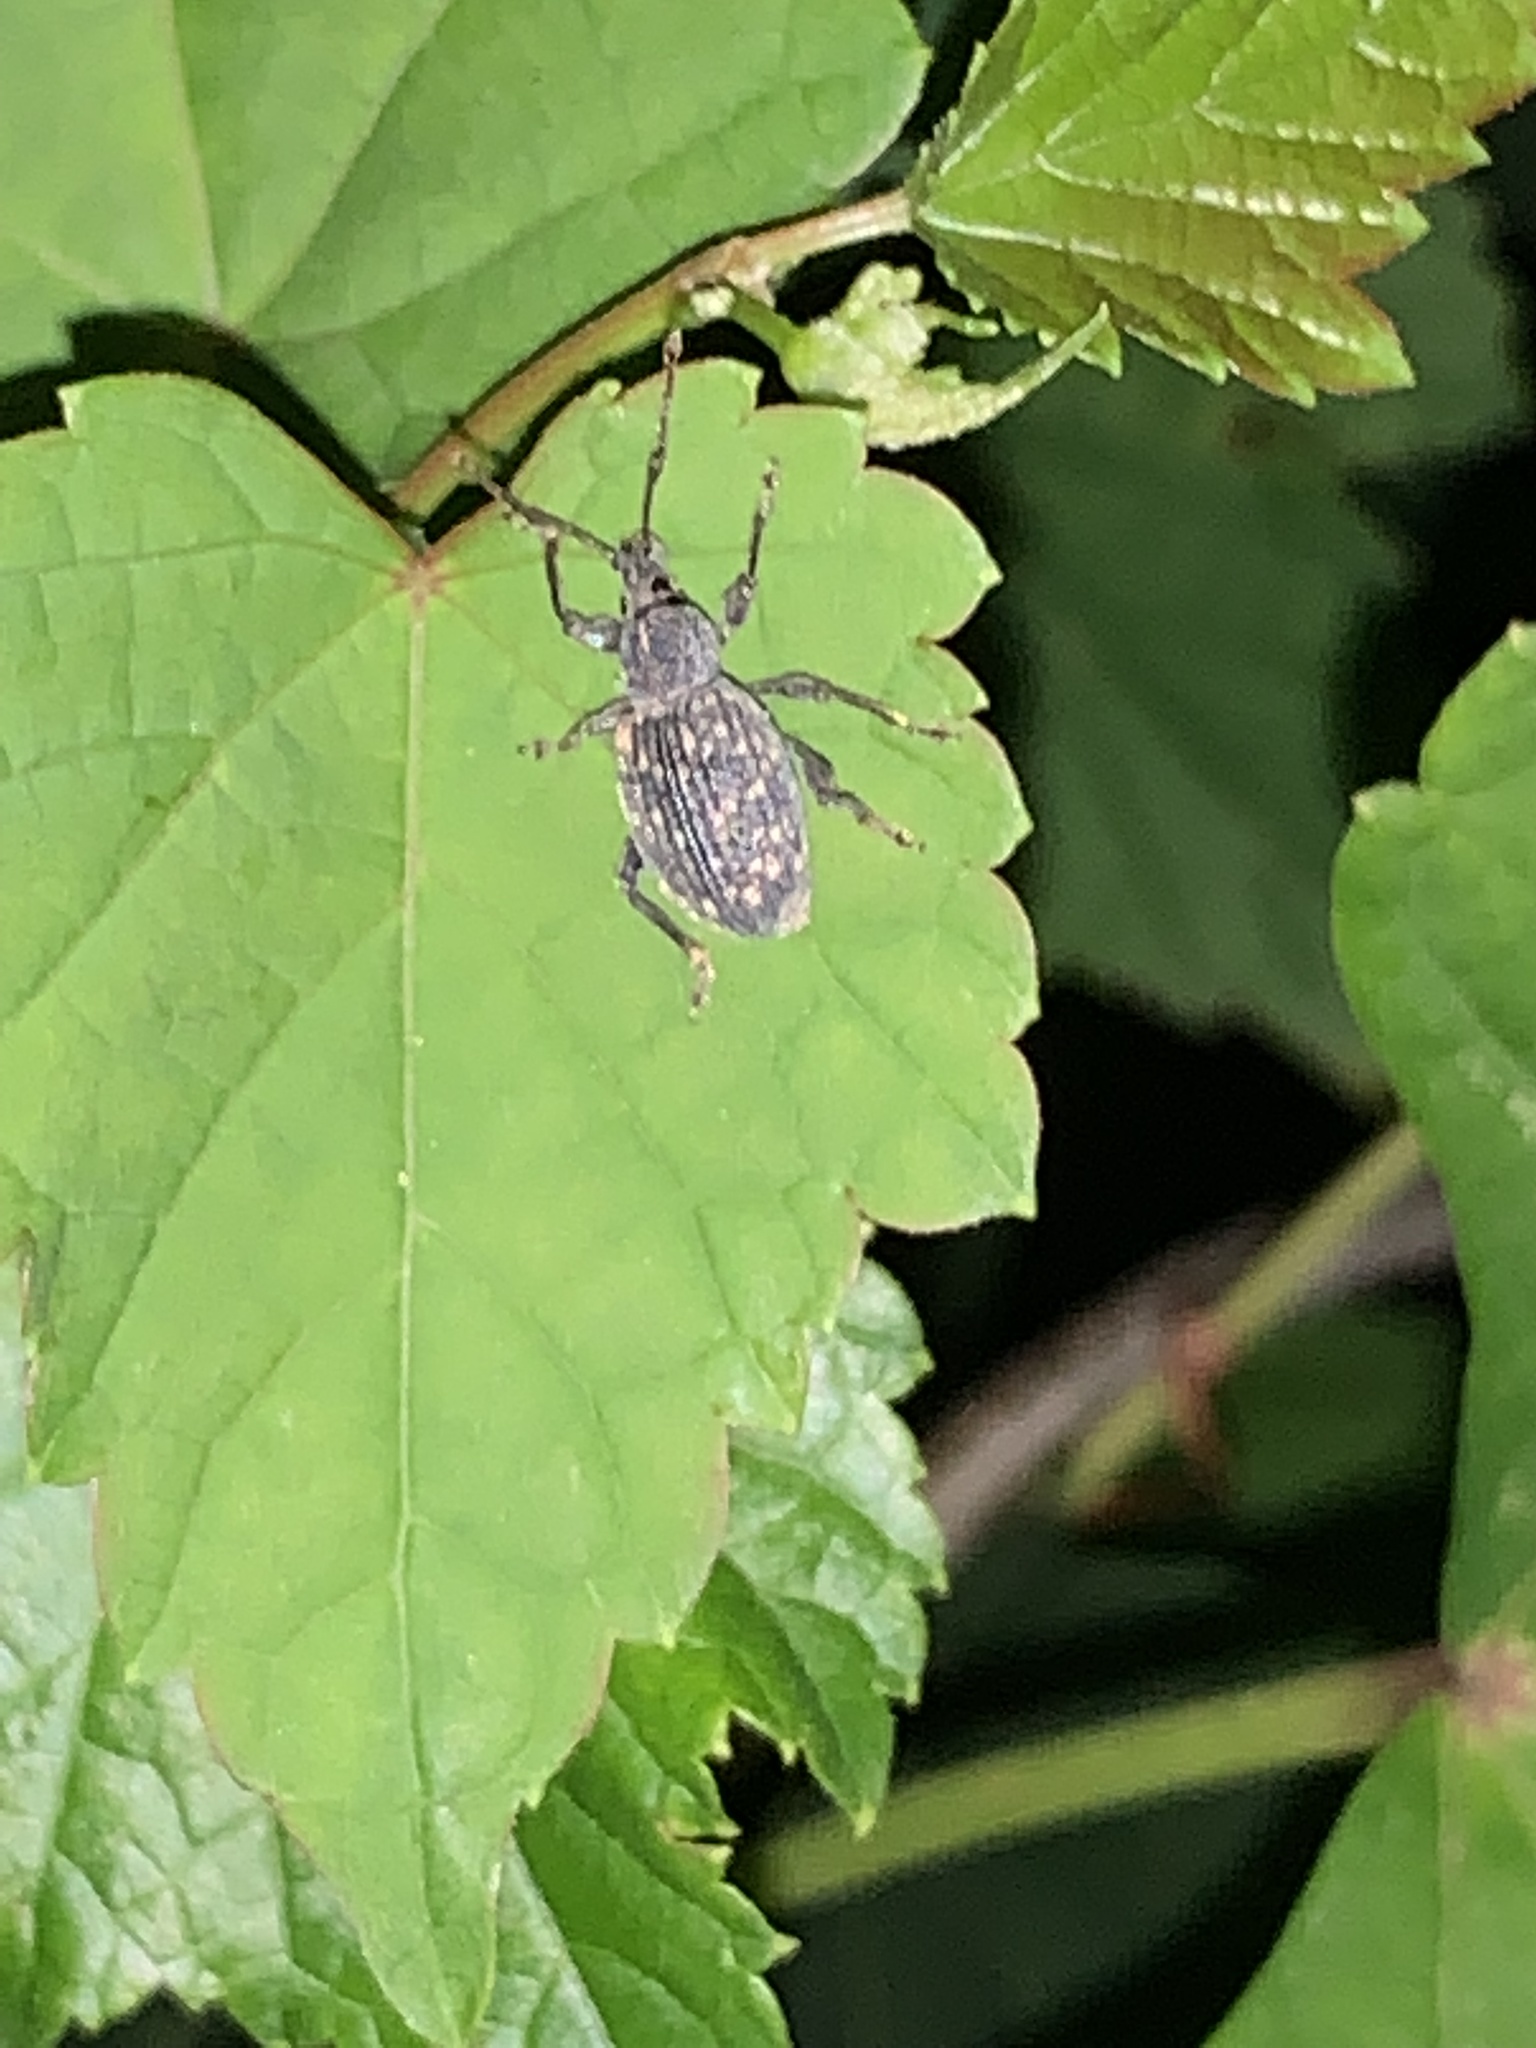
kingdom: Animalia
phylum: Arthropoda
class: Insecta
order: Coleoptera
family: Curculionidae
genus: Otiorhynchus
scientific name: Otiorhynchus sulcatus
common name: Black vine weevil
